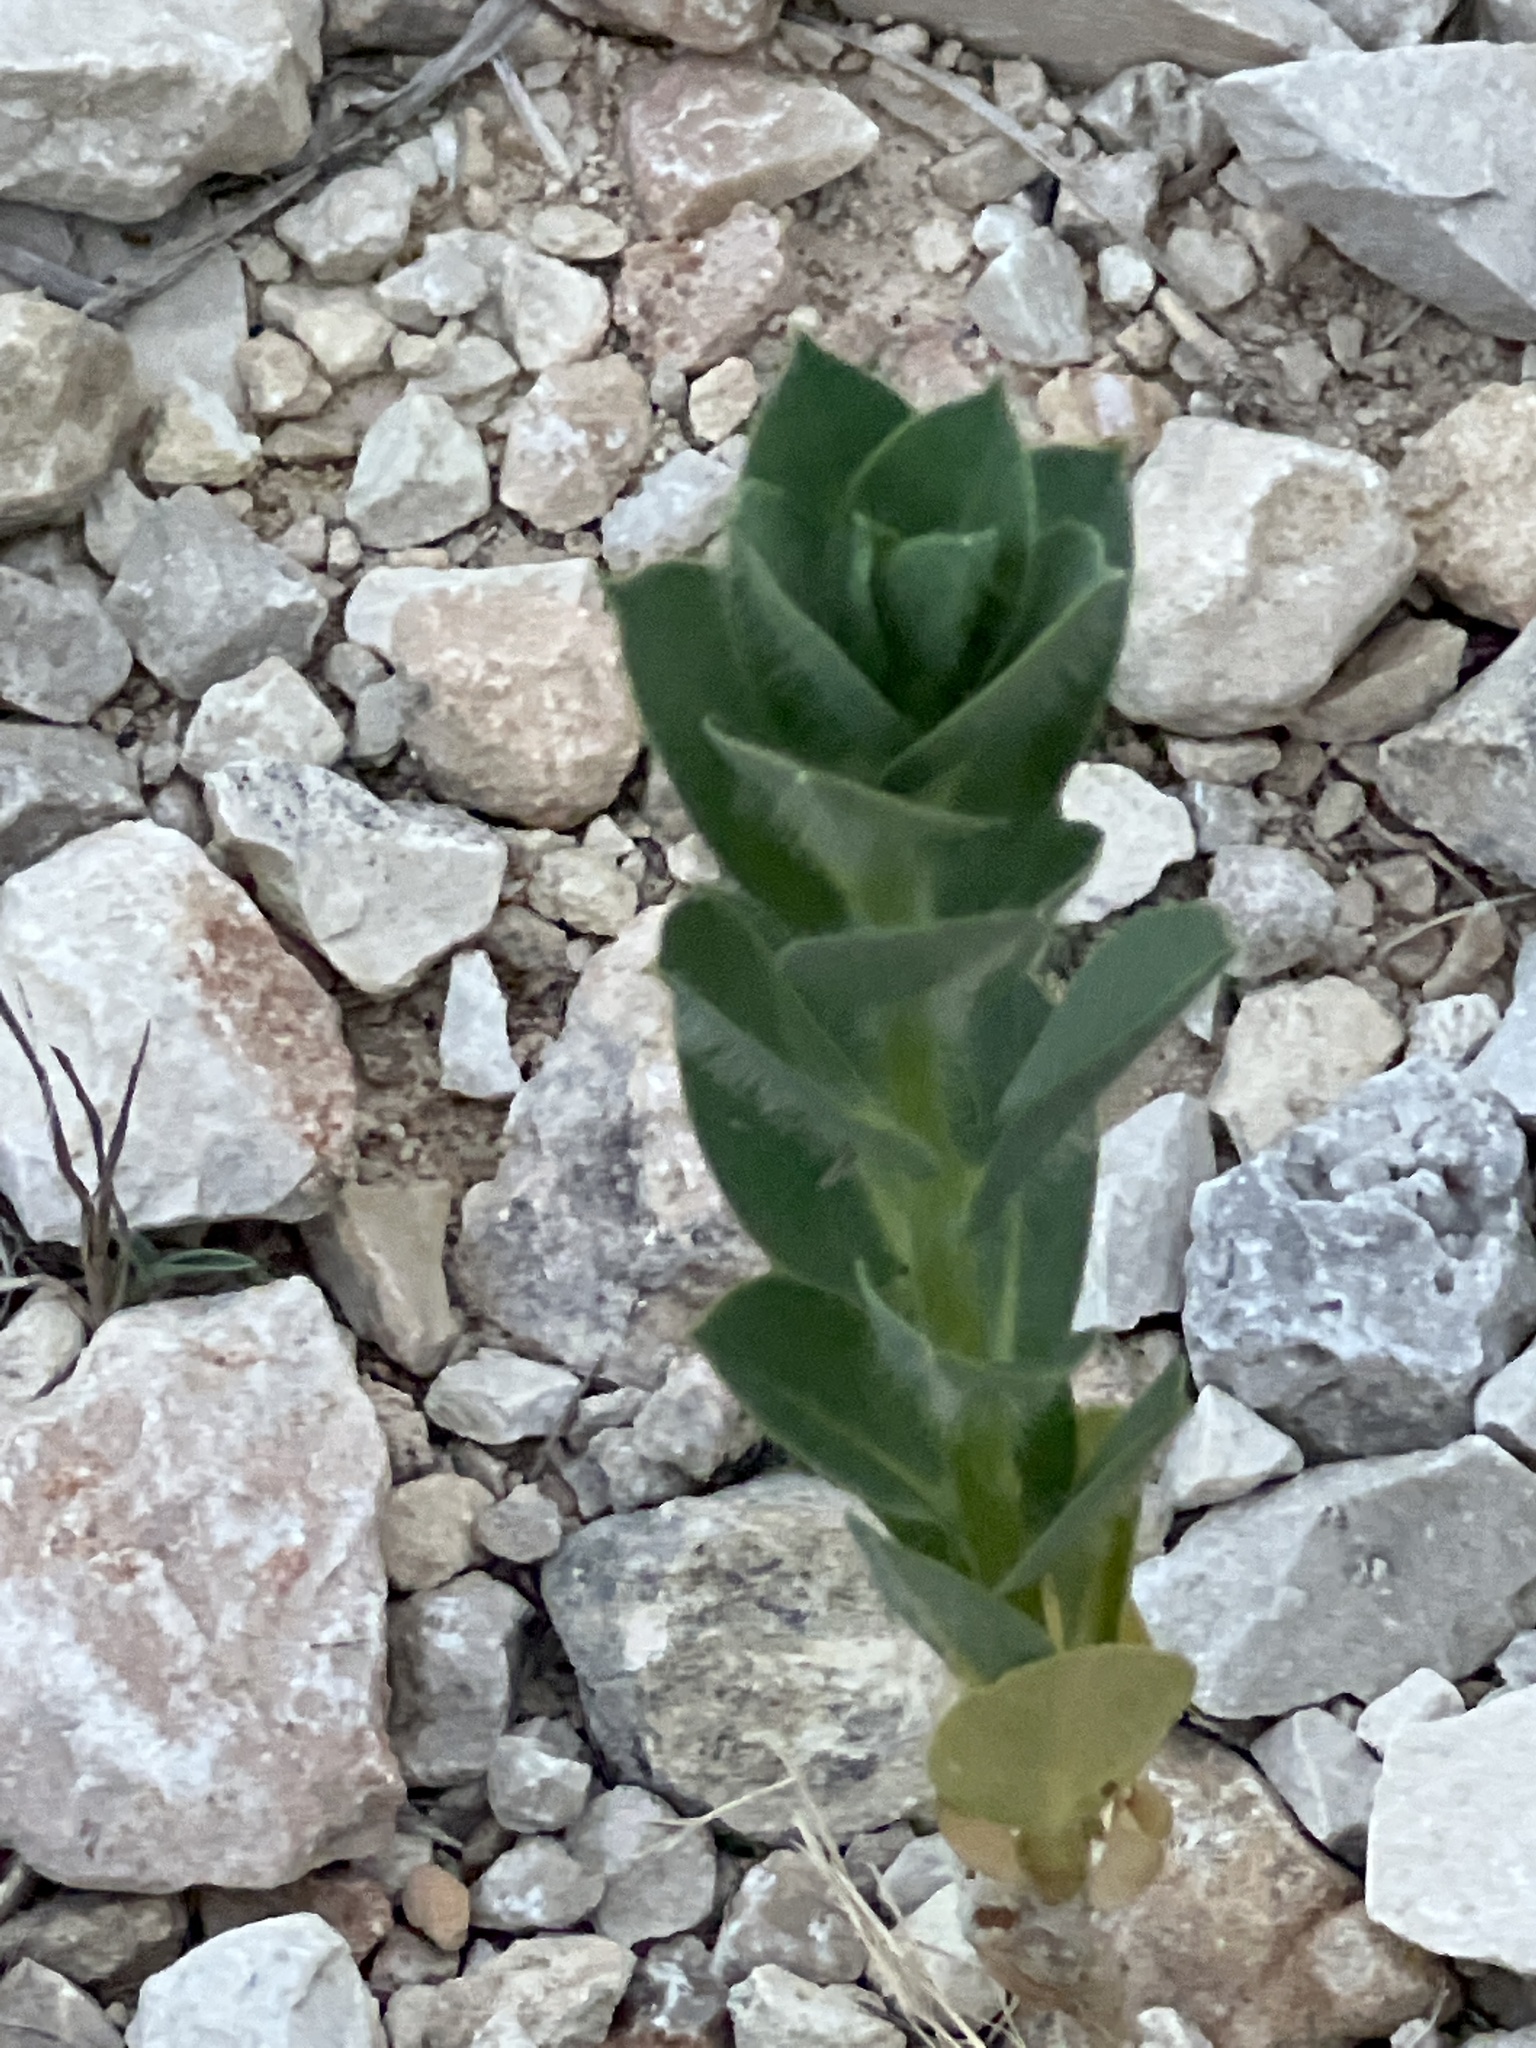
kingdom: Plantae
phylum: Tracheophyta
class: Magnoliopsida
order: Malpighiales
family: Euphorbiaceae
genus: Euphorbia
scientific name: Euphorbia marginata
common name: Ghostweed
